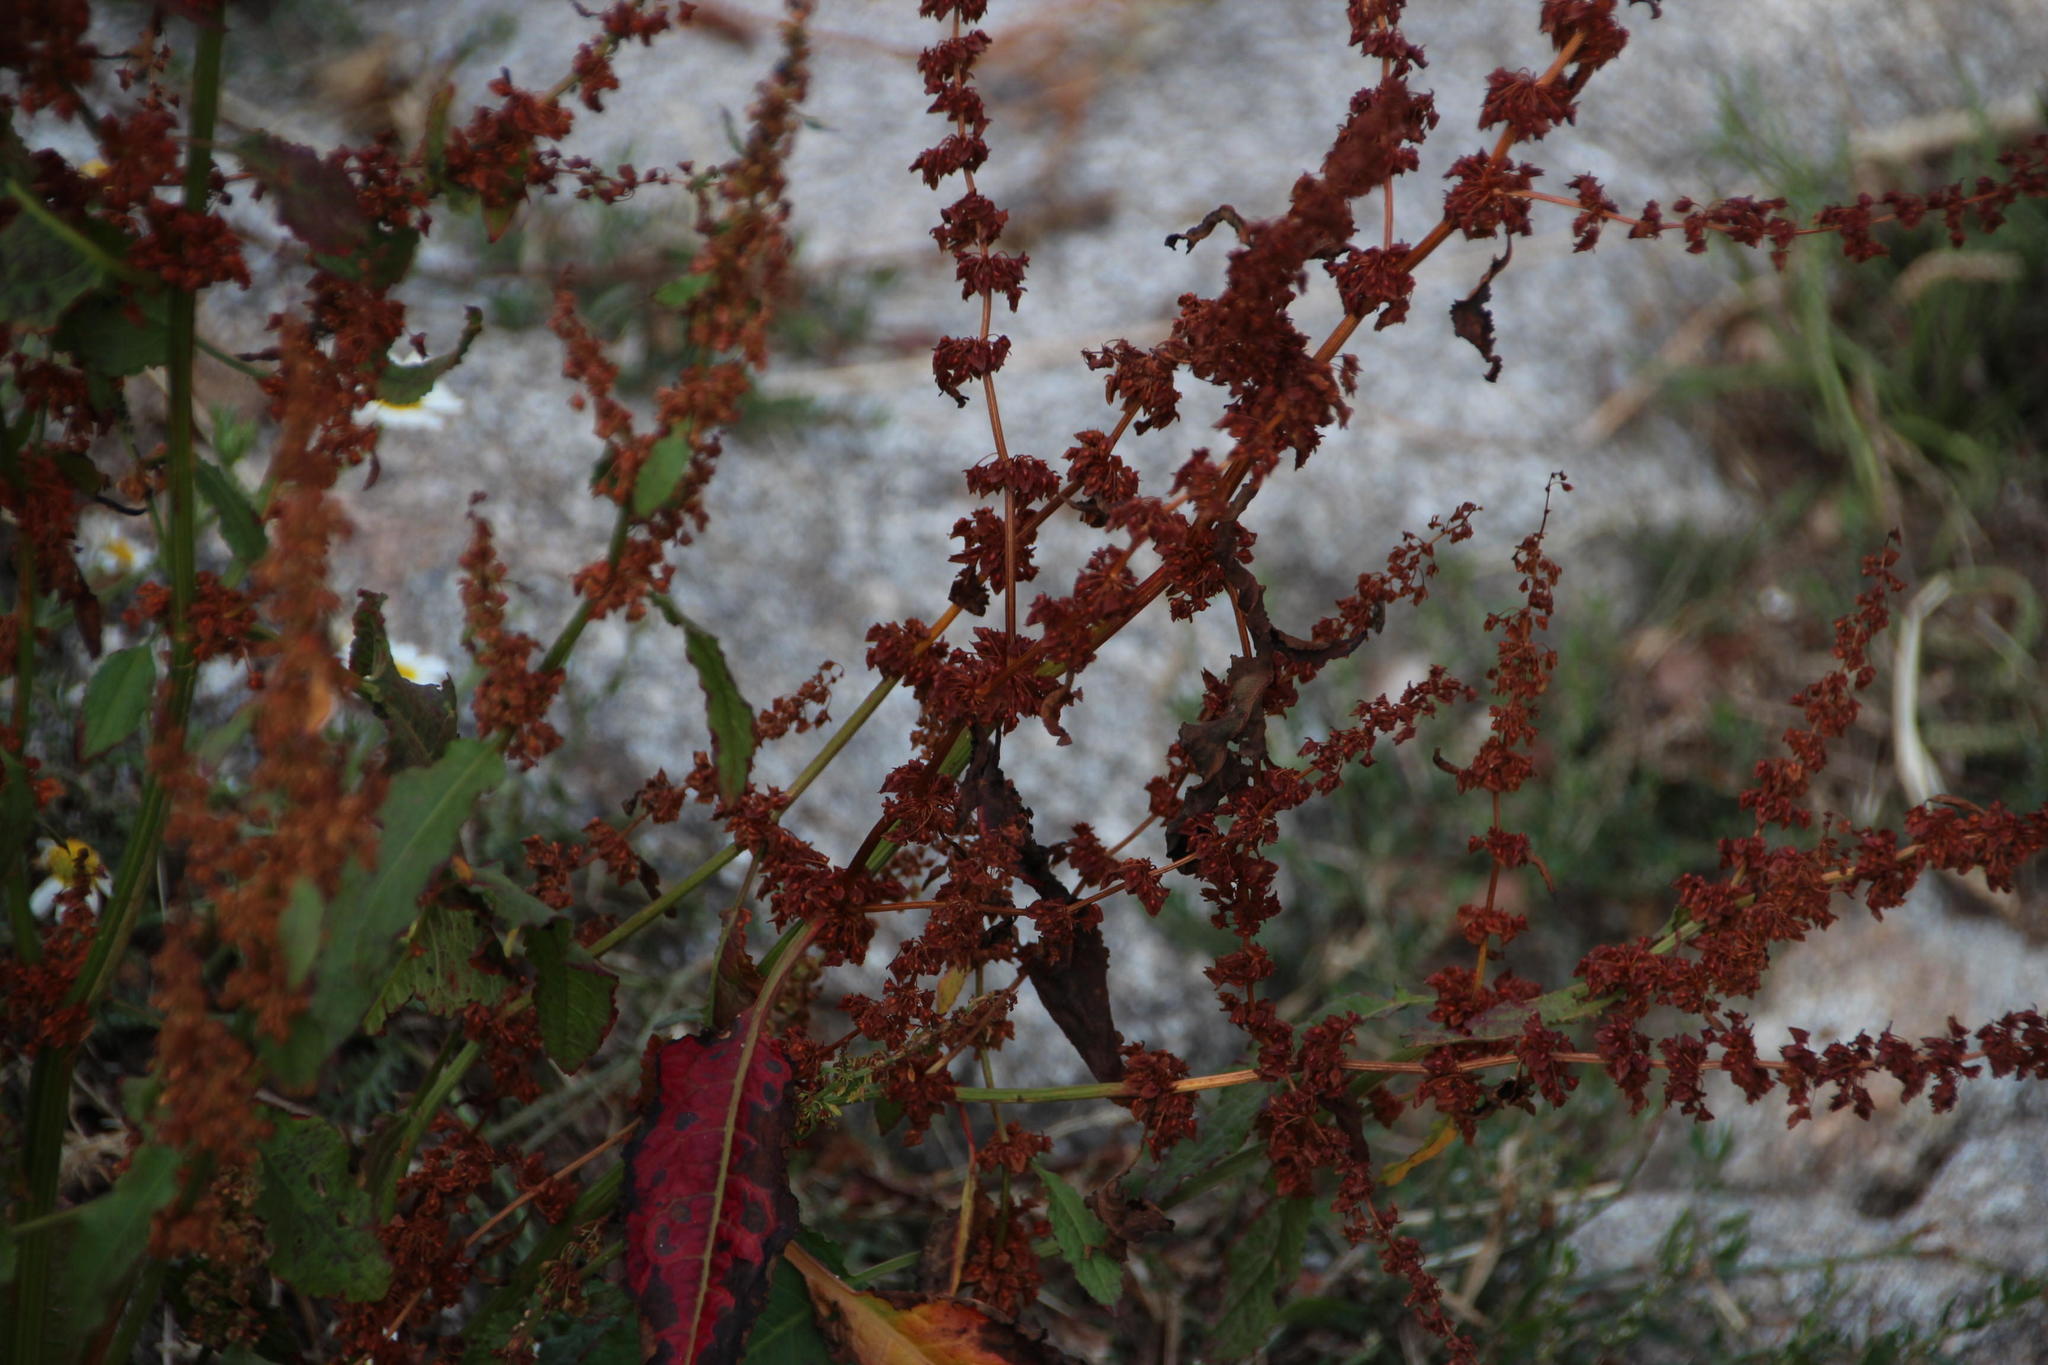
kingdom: Plantae
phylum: Tracheophyta
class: Magnoliopsida
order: Caryophyllales
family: Polygonaceae
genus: Rumex
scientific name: Rumex obtusifolius
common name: Bitter dock
